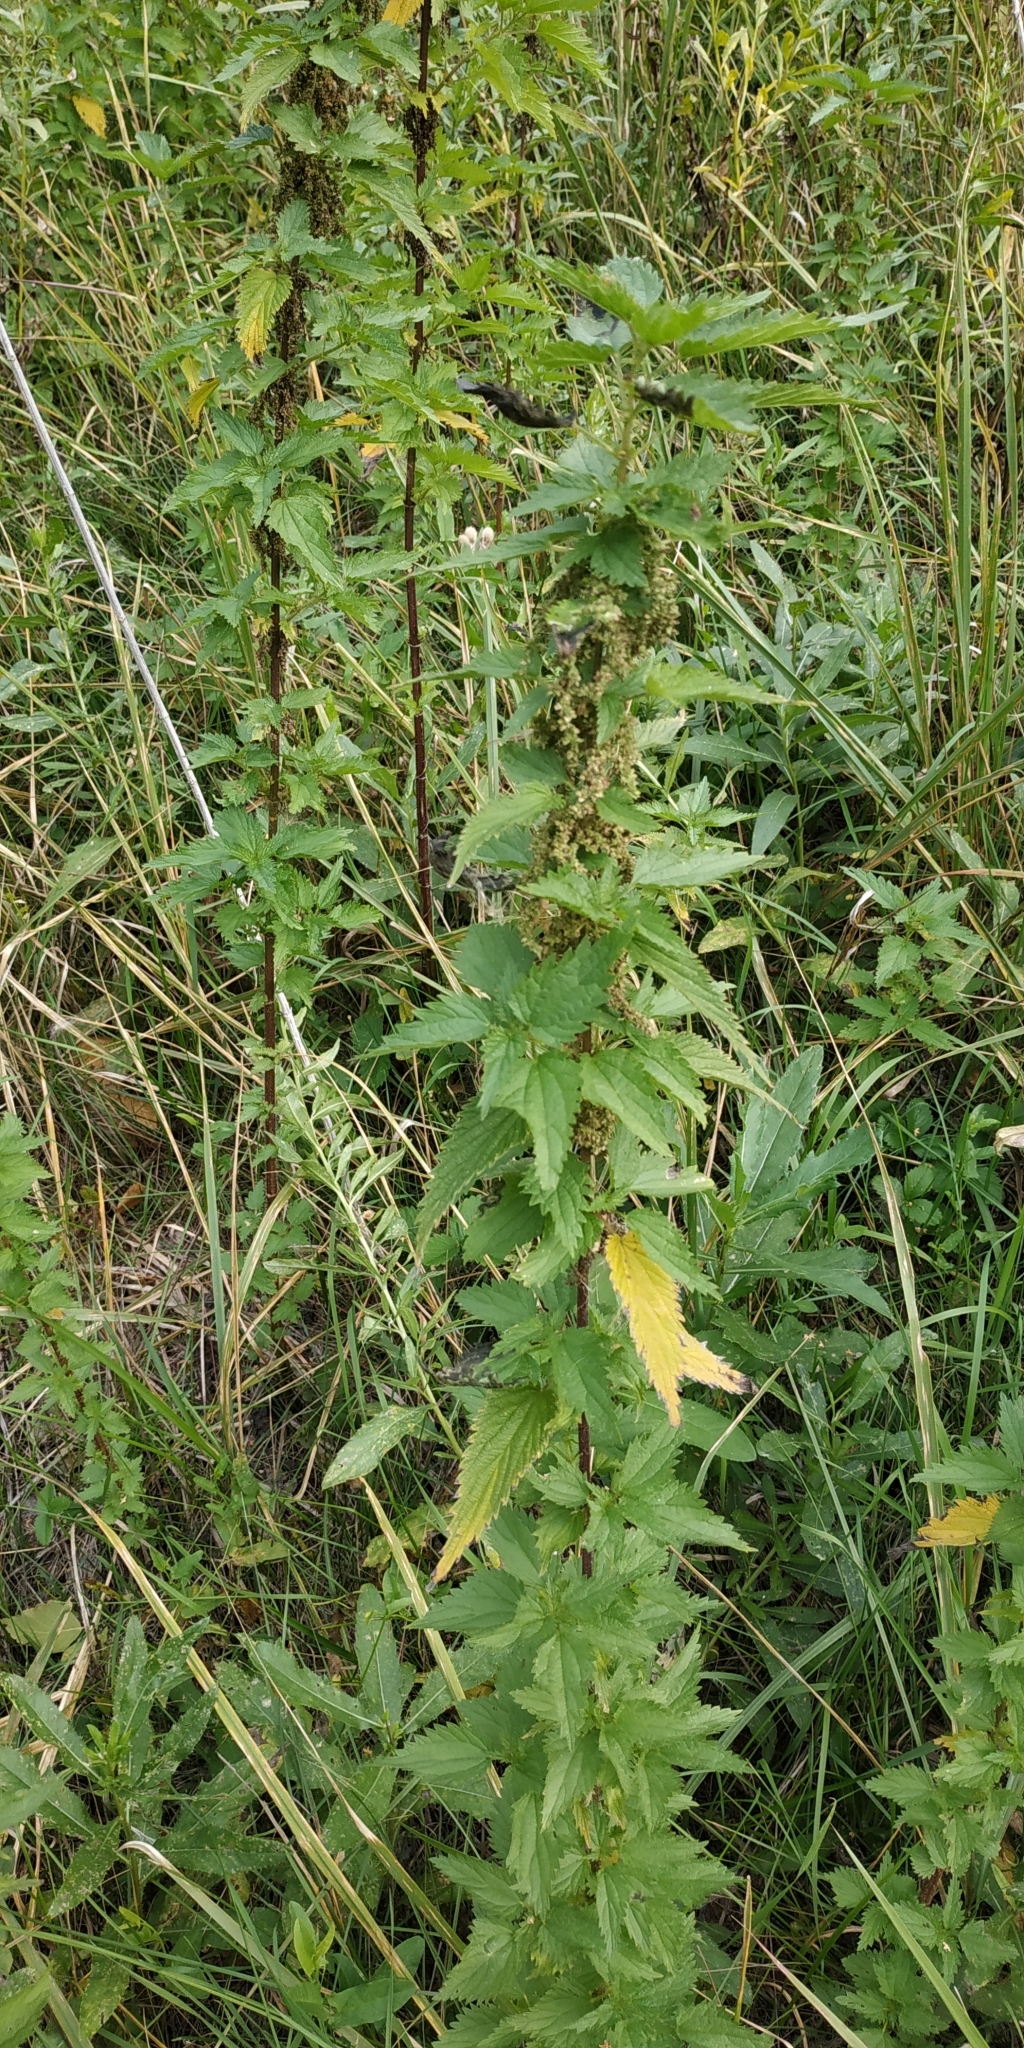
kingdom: Plantae
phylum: Tracheophyta
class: Magnoliopsida
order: Rosales
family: Urticaceae
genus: Urtica
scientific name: Urtica dioica
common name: Common nettle
